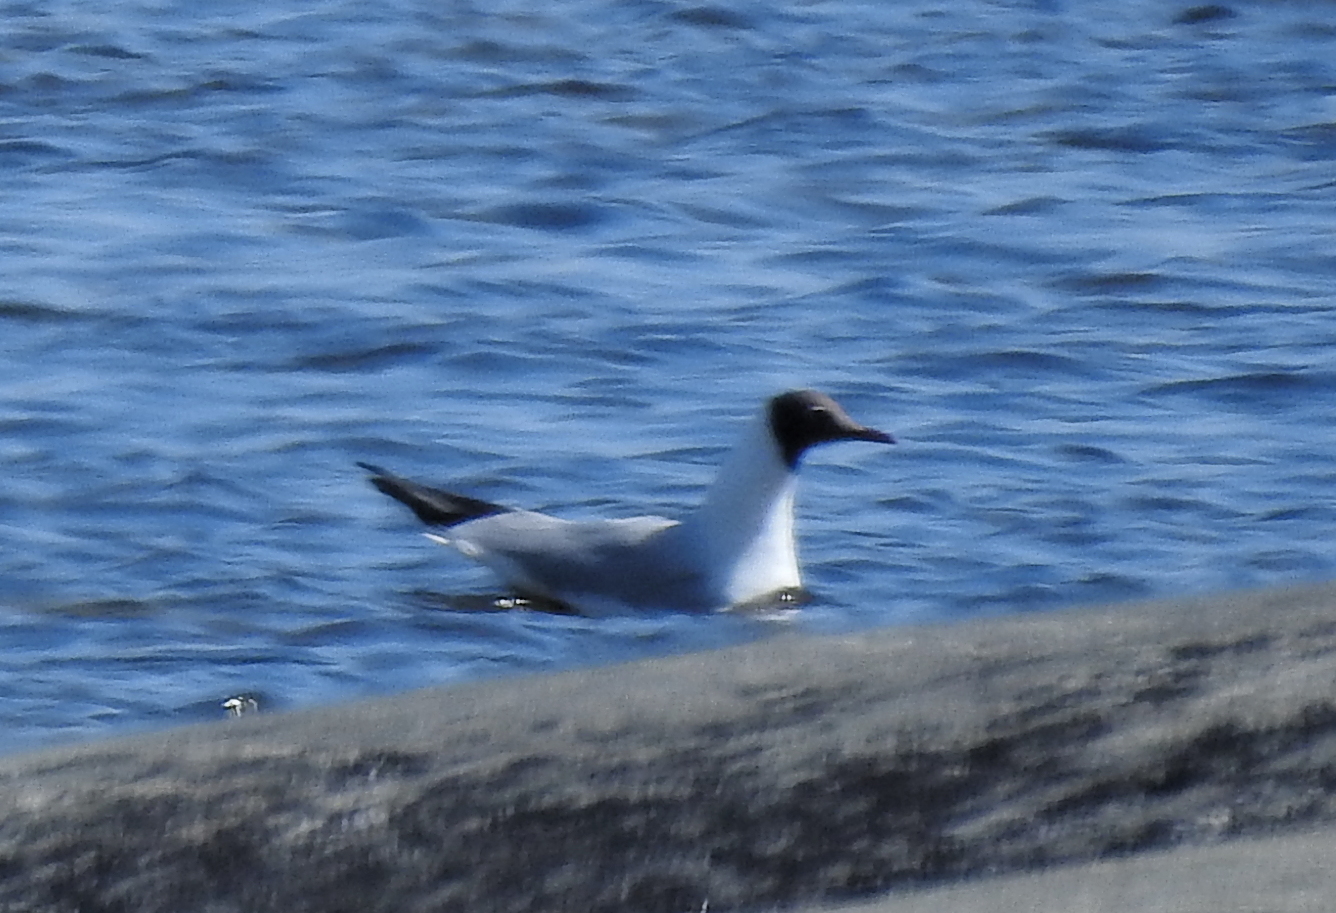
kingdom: Animalia
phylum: Chordata
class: Aves
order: Charadriiformes
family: Laridae
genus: Chroicocephalus
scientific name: Chroicocephalus ridibundus
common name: Black-headed gull
